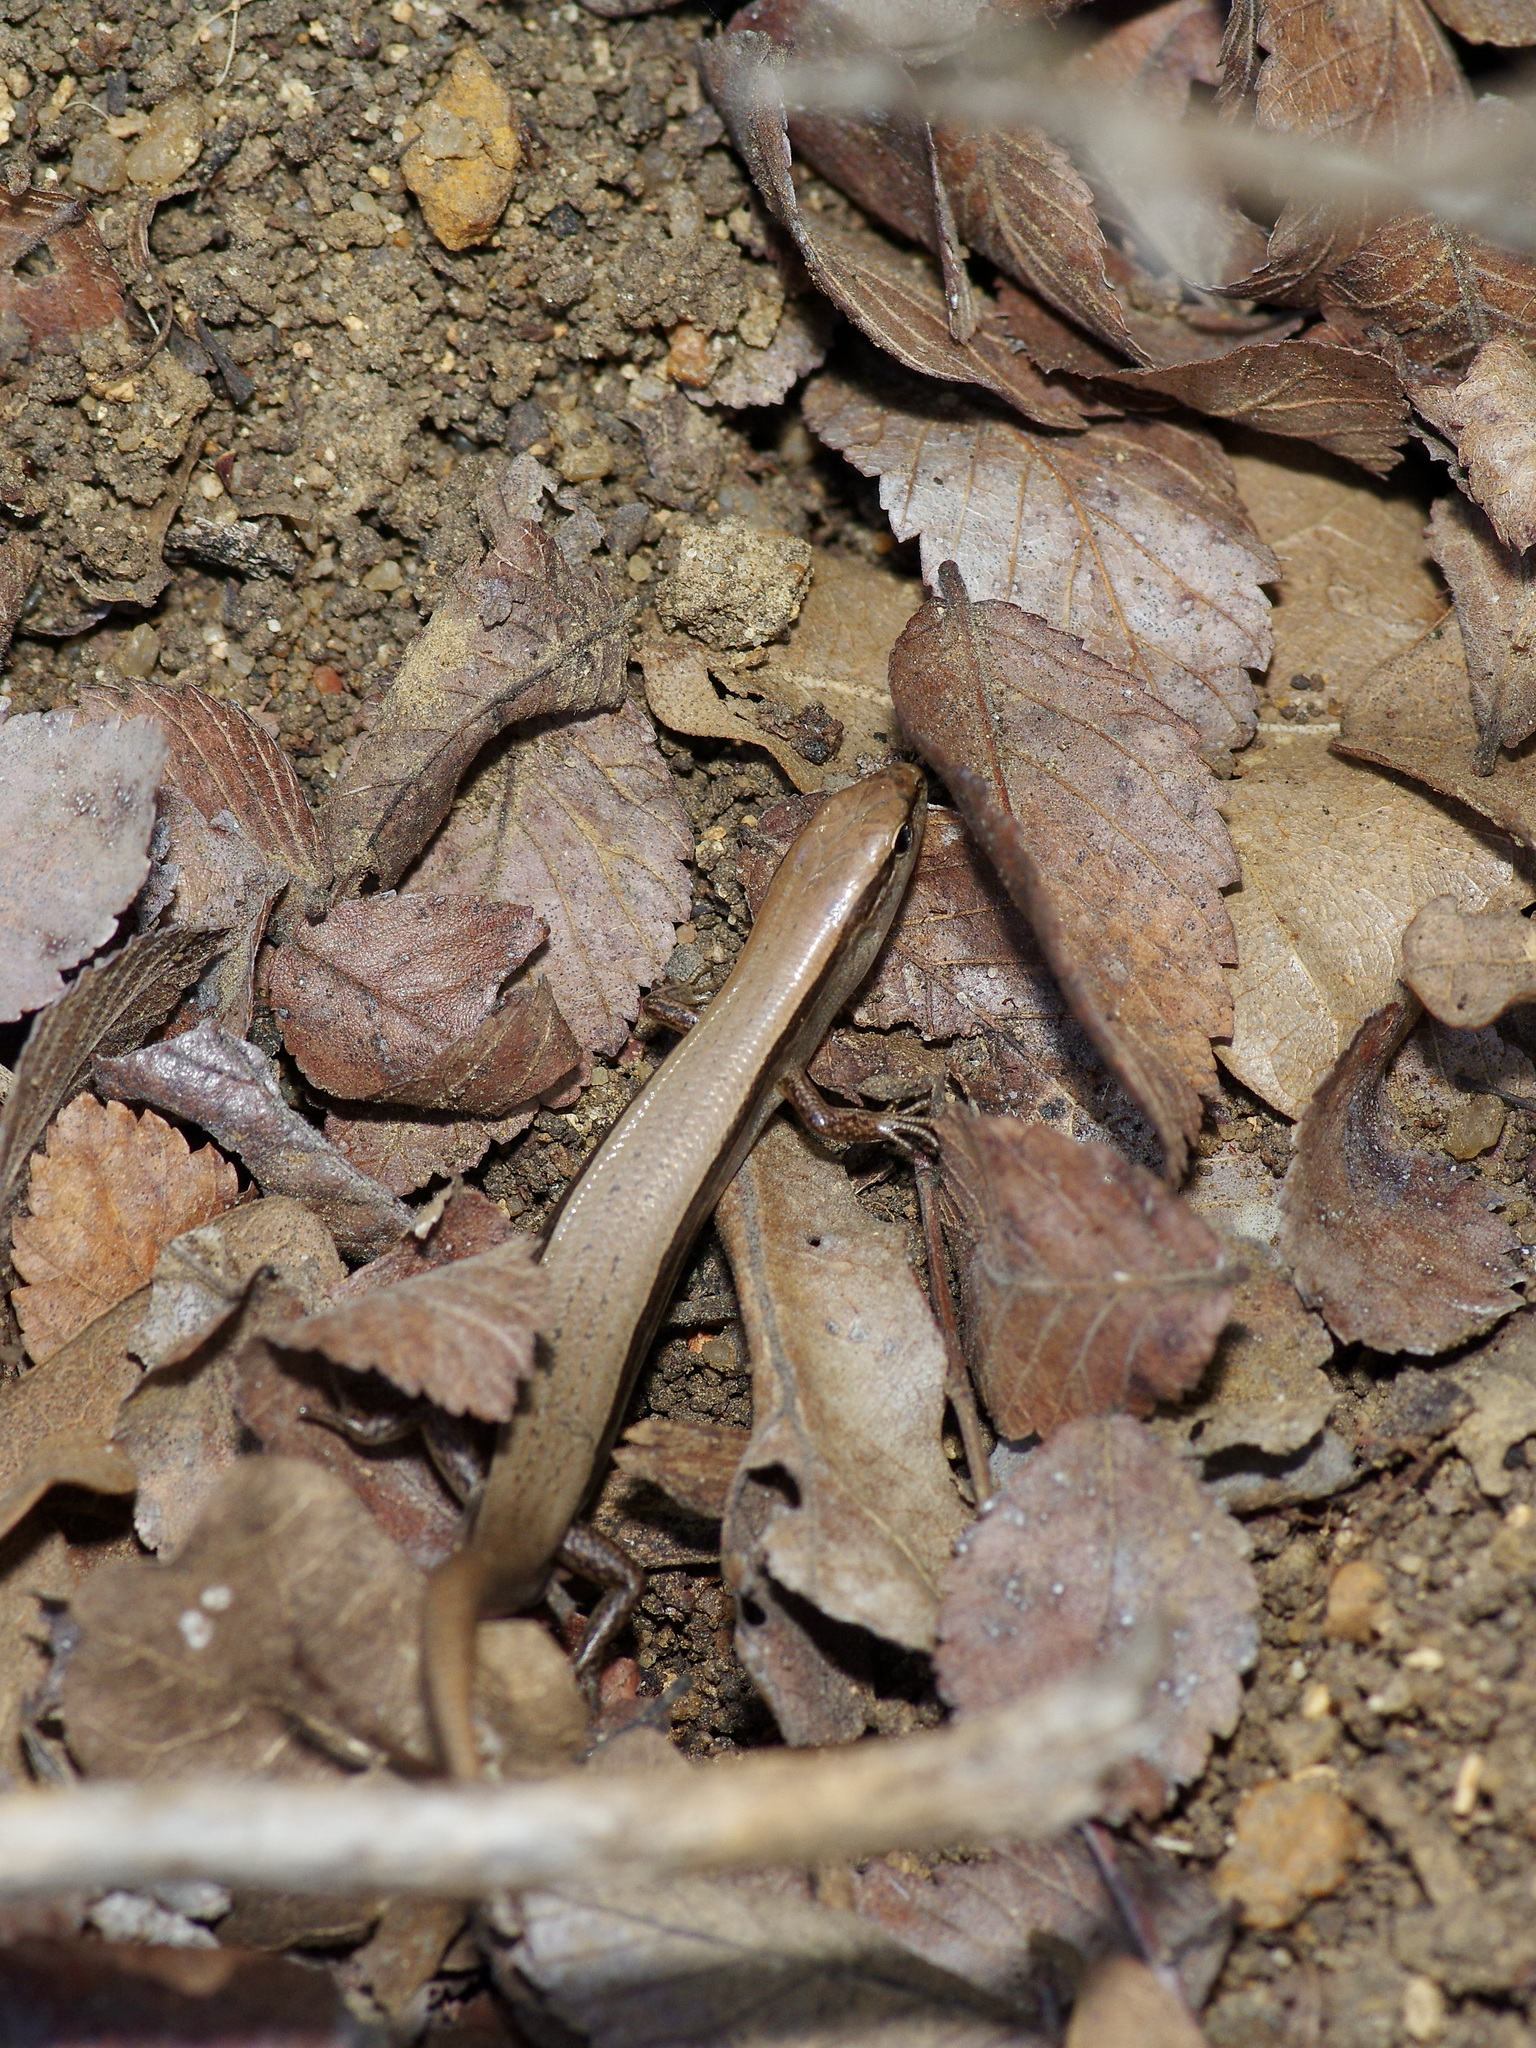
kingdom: Animalia
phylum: Chordata
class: Squamata
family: Scincidae
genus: Scincella
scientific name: Scincella lateralis
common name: Ground skink
